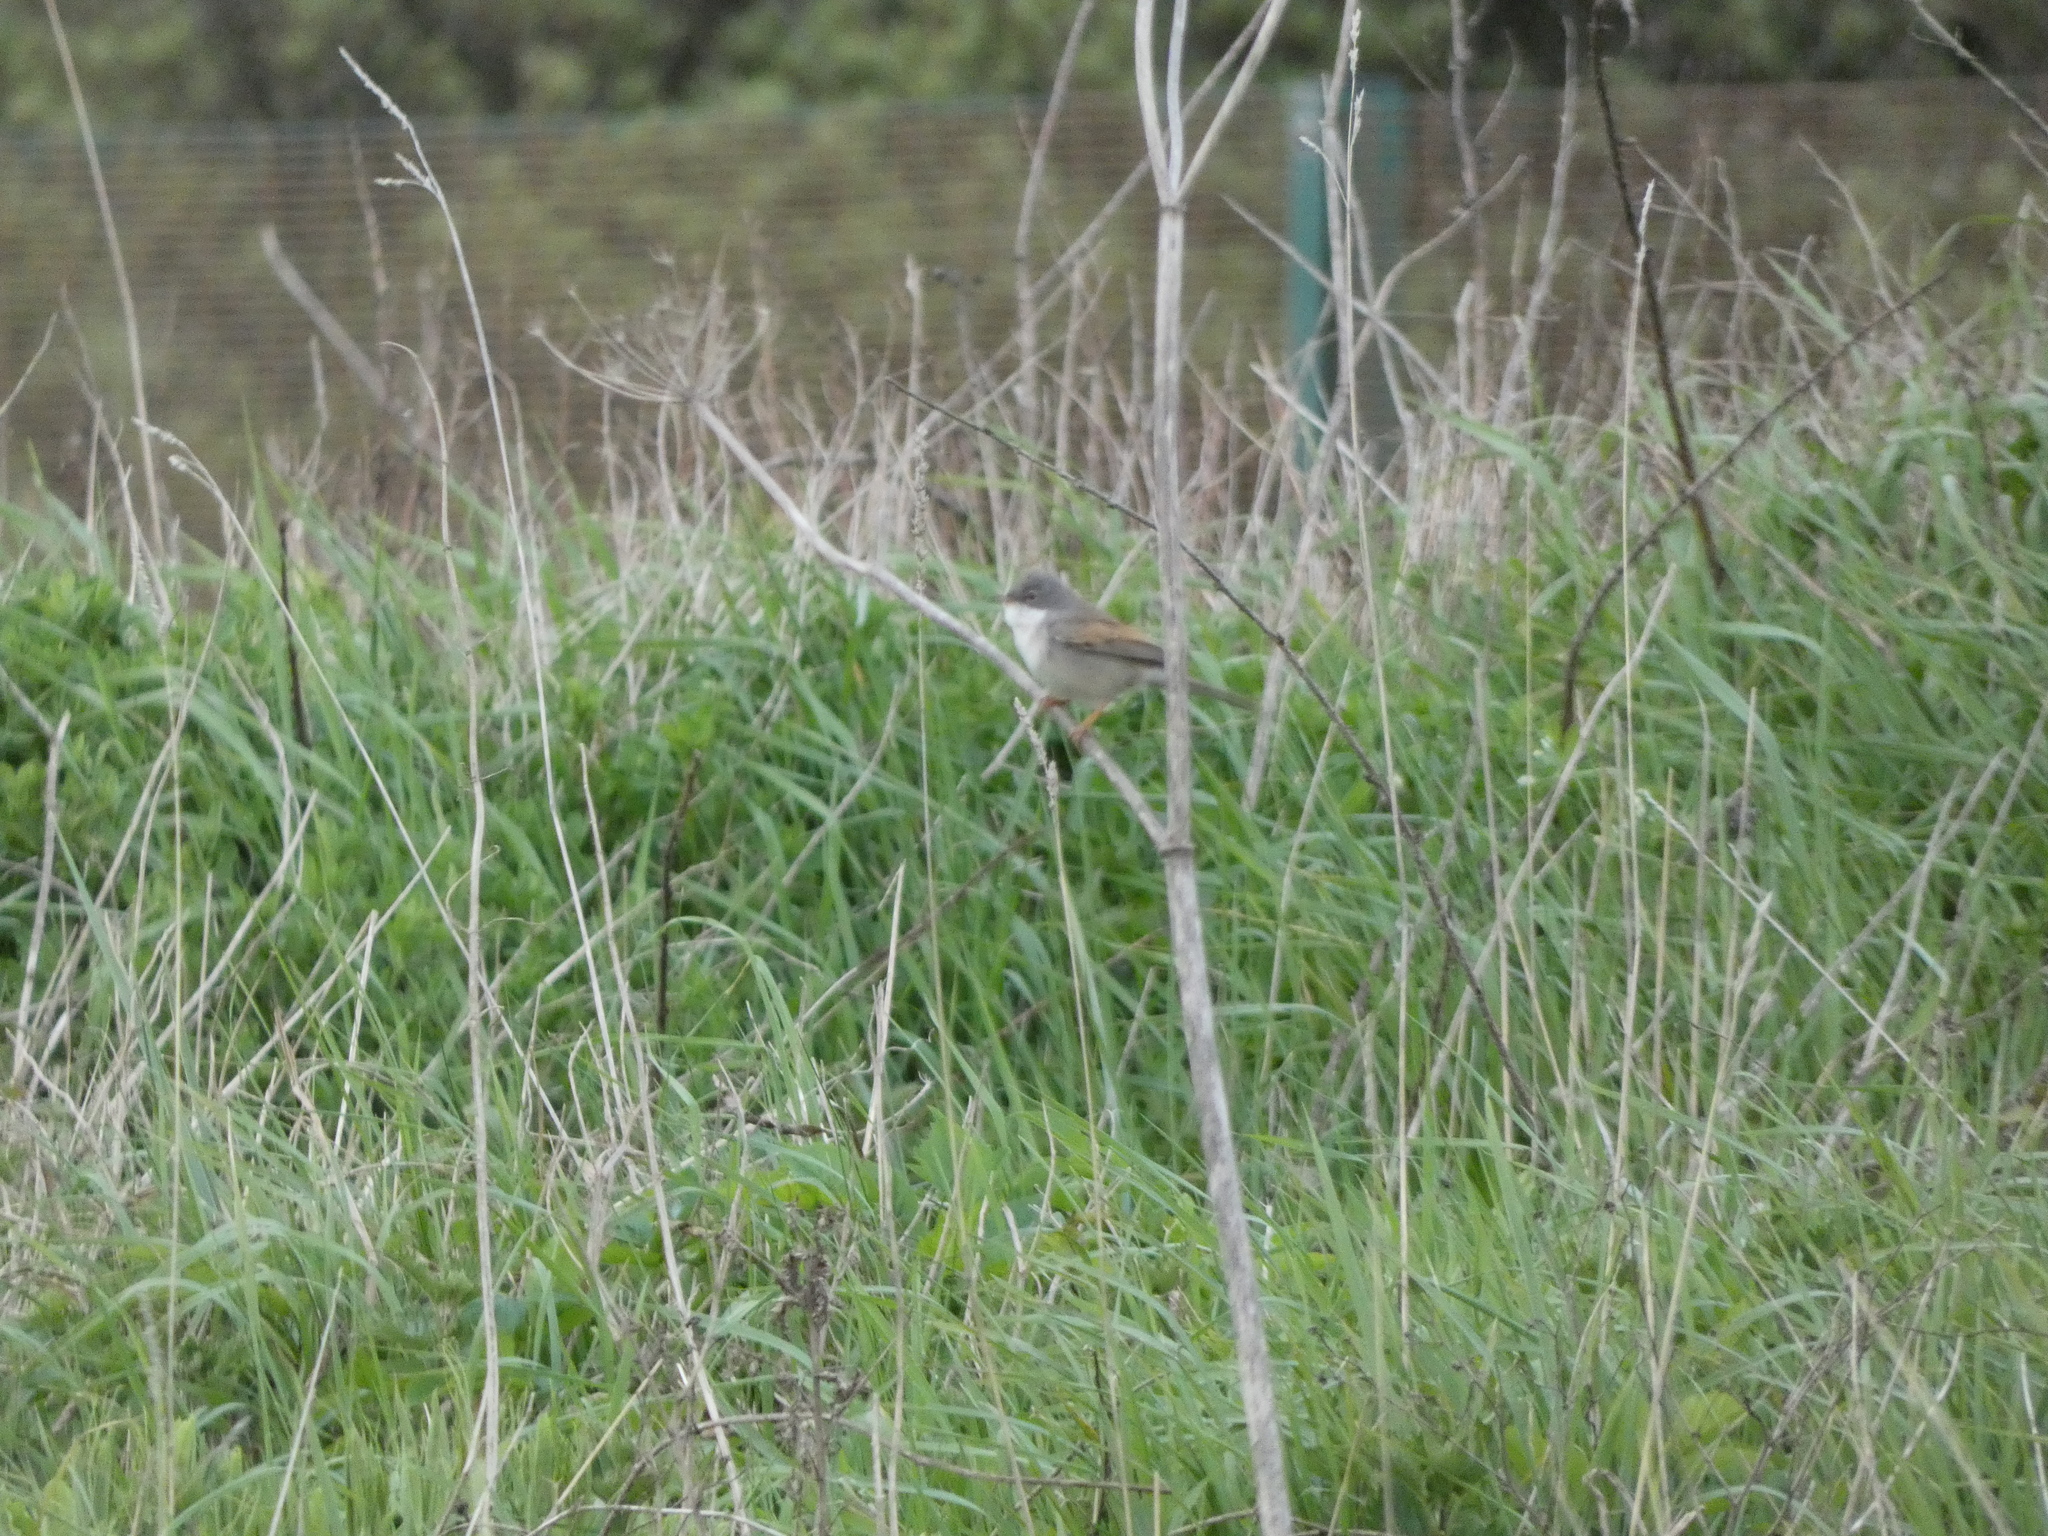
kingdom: Animalia
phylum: Chordata
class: Aves
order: Passeriformes
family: Sylviidae
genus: Sylvia
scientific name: Sylvia communis
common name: Common whitethroat
